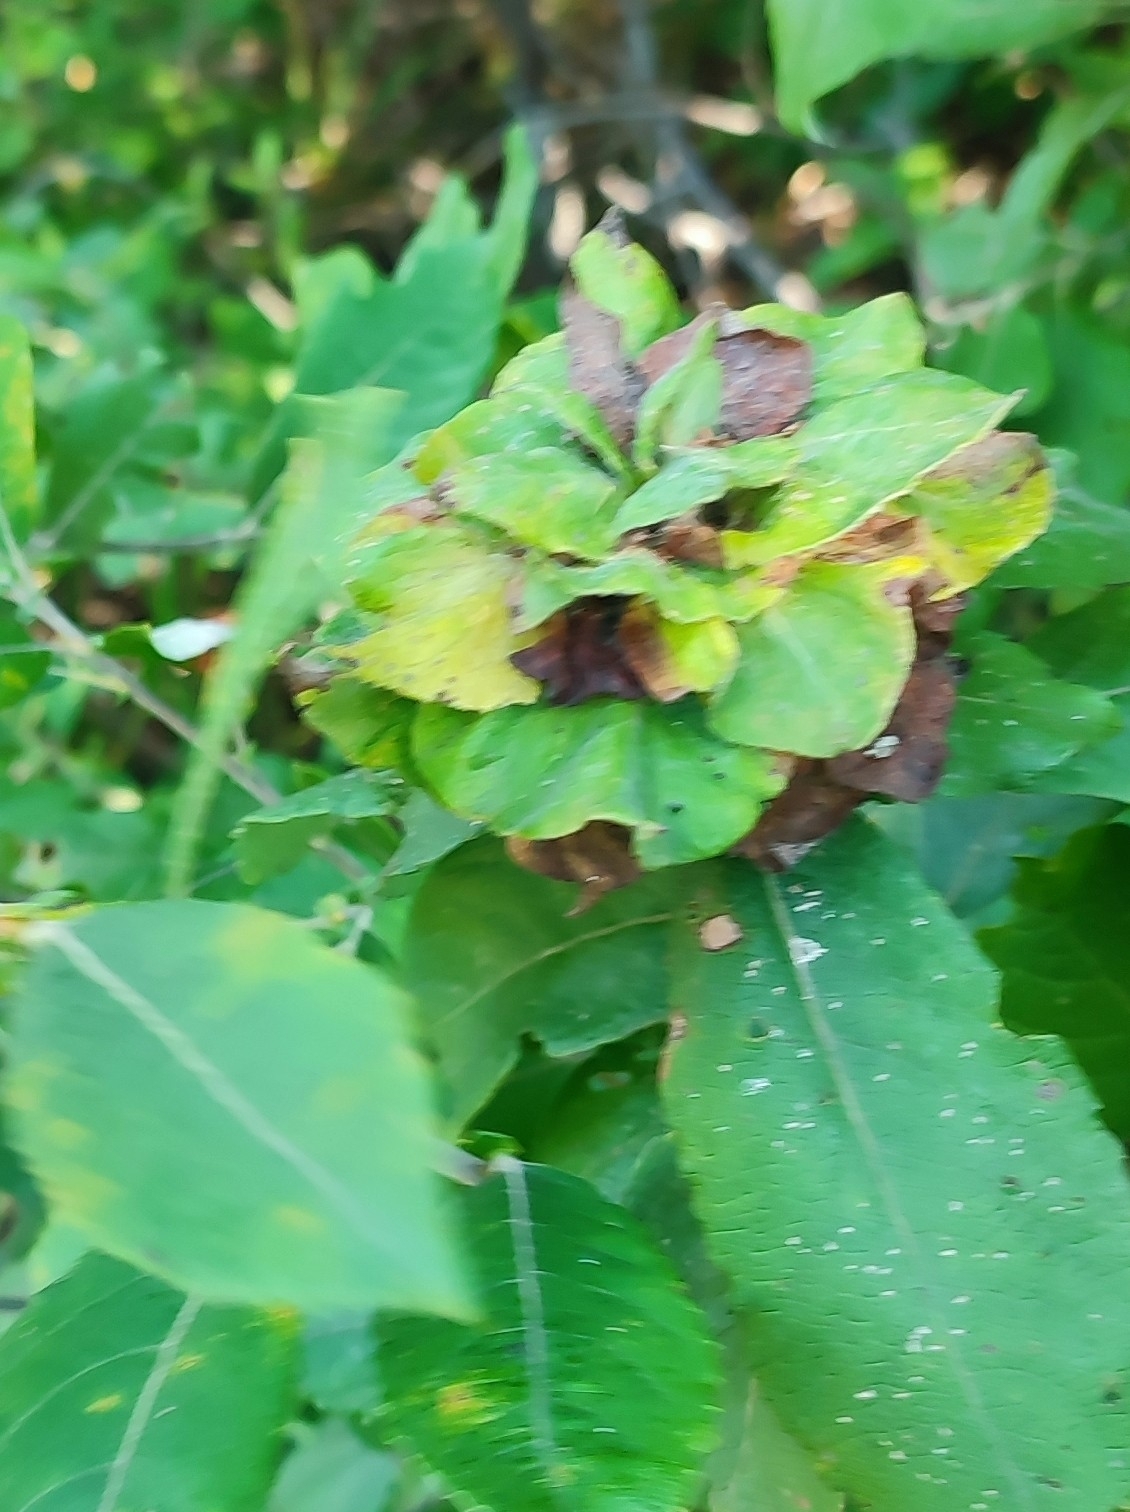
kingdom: Animalia
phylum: Arthropoda
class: Insecta
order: Diptera
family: Cecidomyiidae
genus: Rabdophaga
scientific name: Rabdophaga rosaria
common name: Willow rose gall midge
